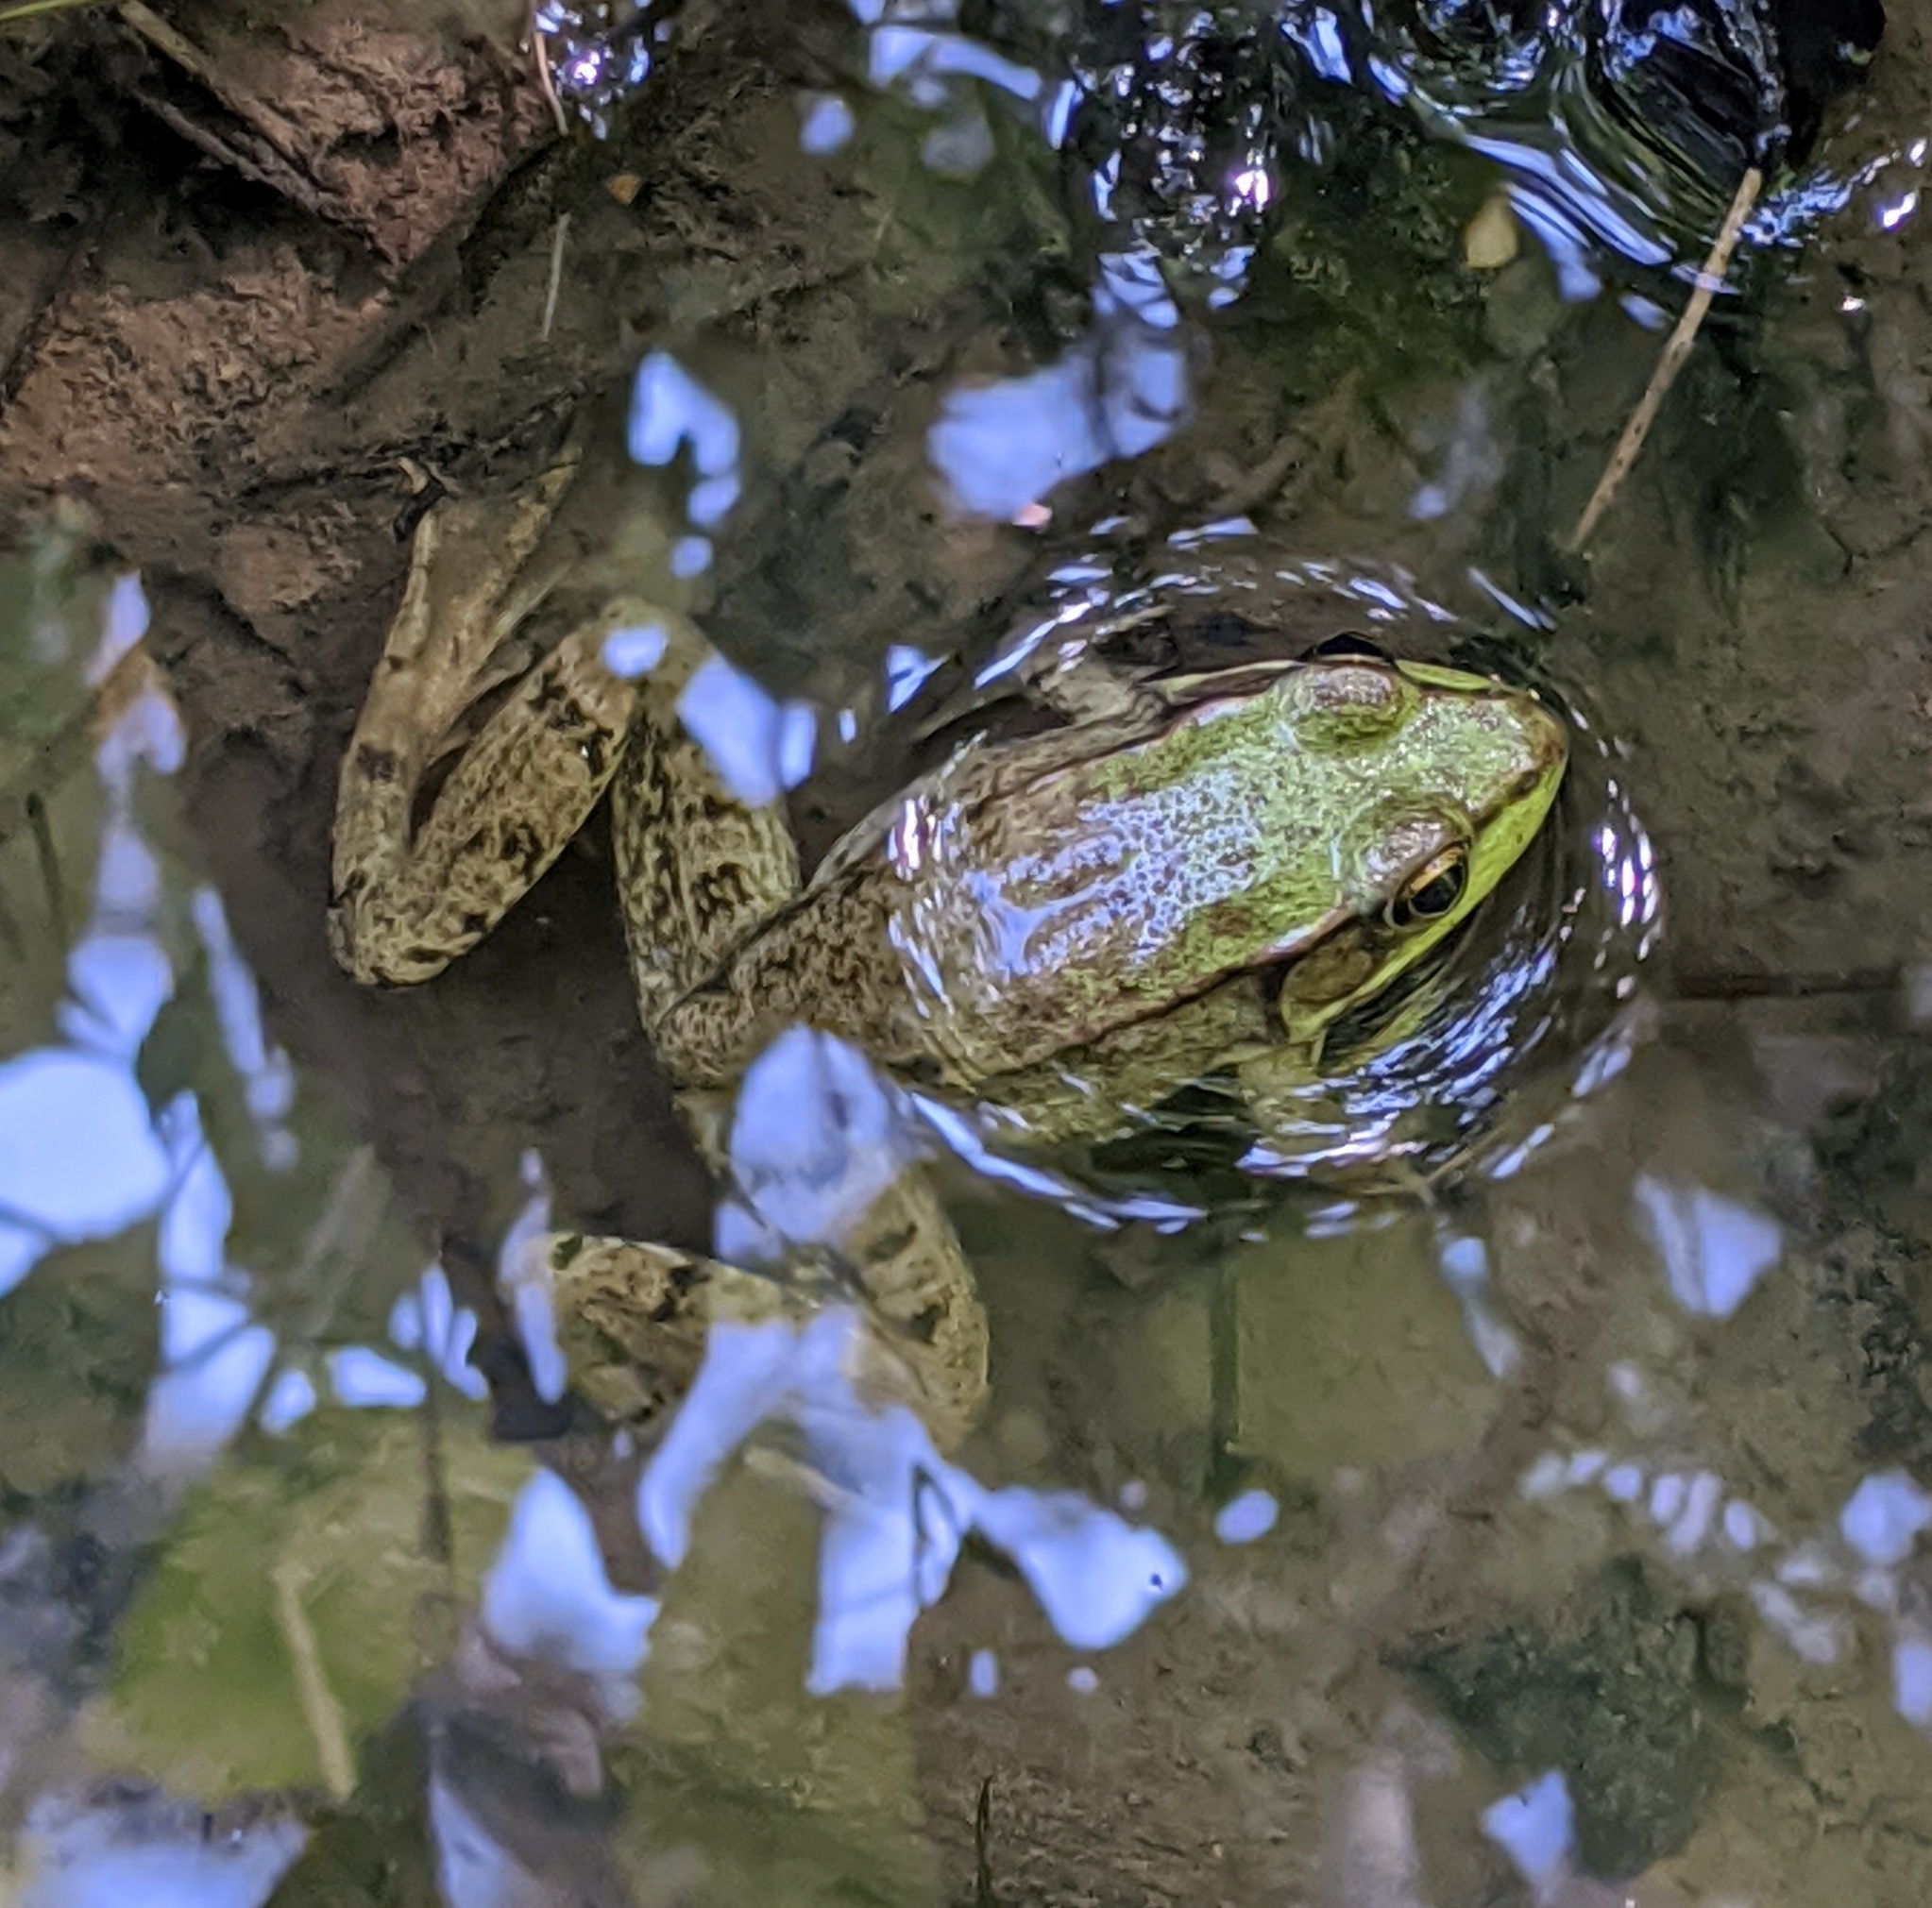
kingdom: Animalia
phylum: Chordata
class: Amphibia
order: Anura
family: Ranidae
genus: Lithobates
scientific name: Lithobates clamitans
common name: Green frog
